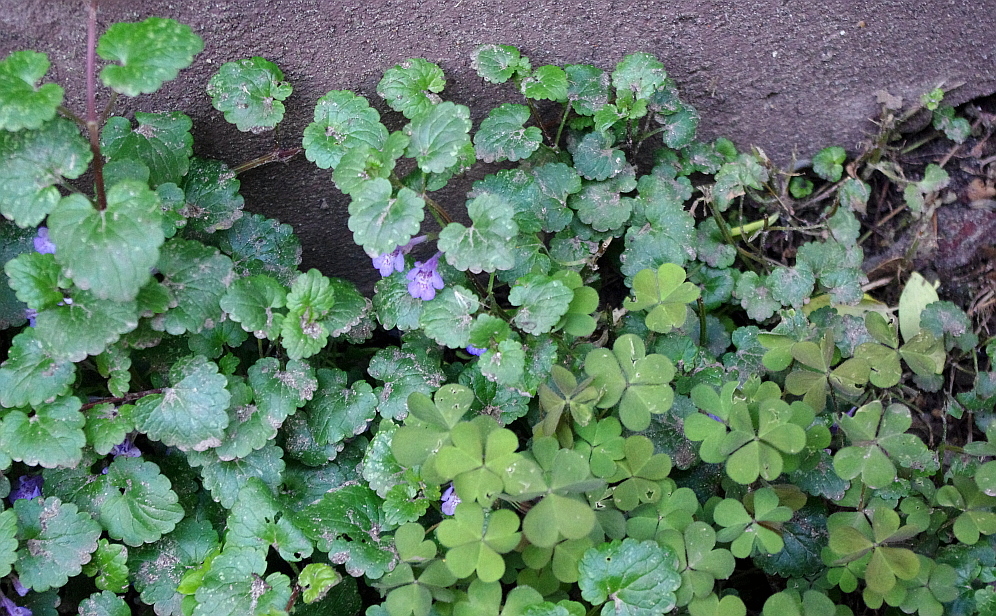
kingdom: Plantae
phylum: Tracheophyta
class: Magnoliopsida
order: Lamiales
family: Lamiaceae
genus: Glechoma
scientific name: Glechoma hederacea
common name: Ground ivy
